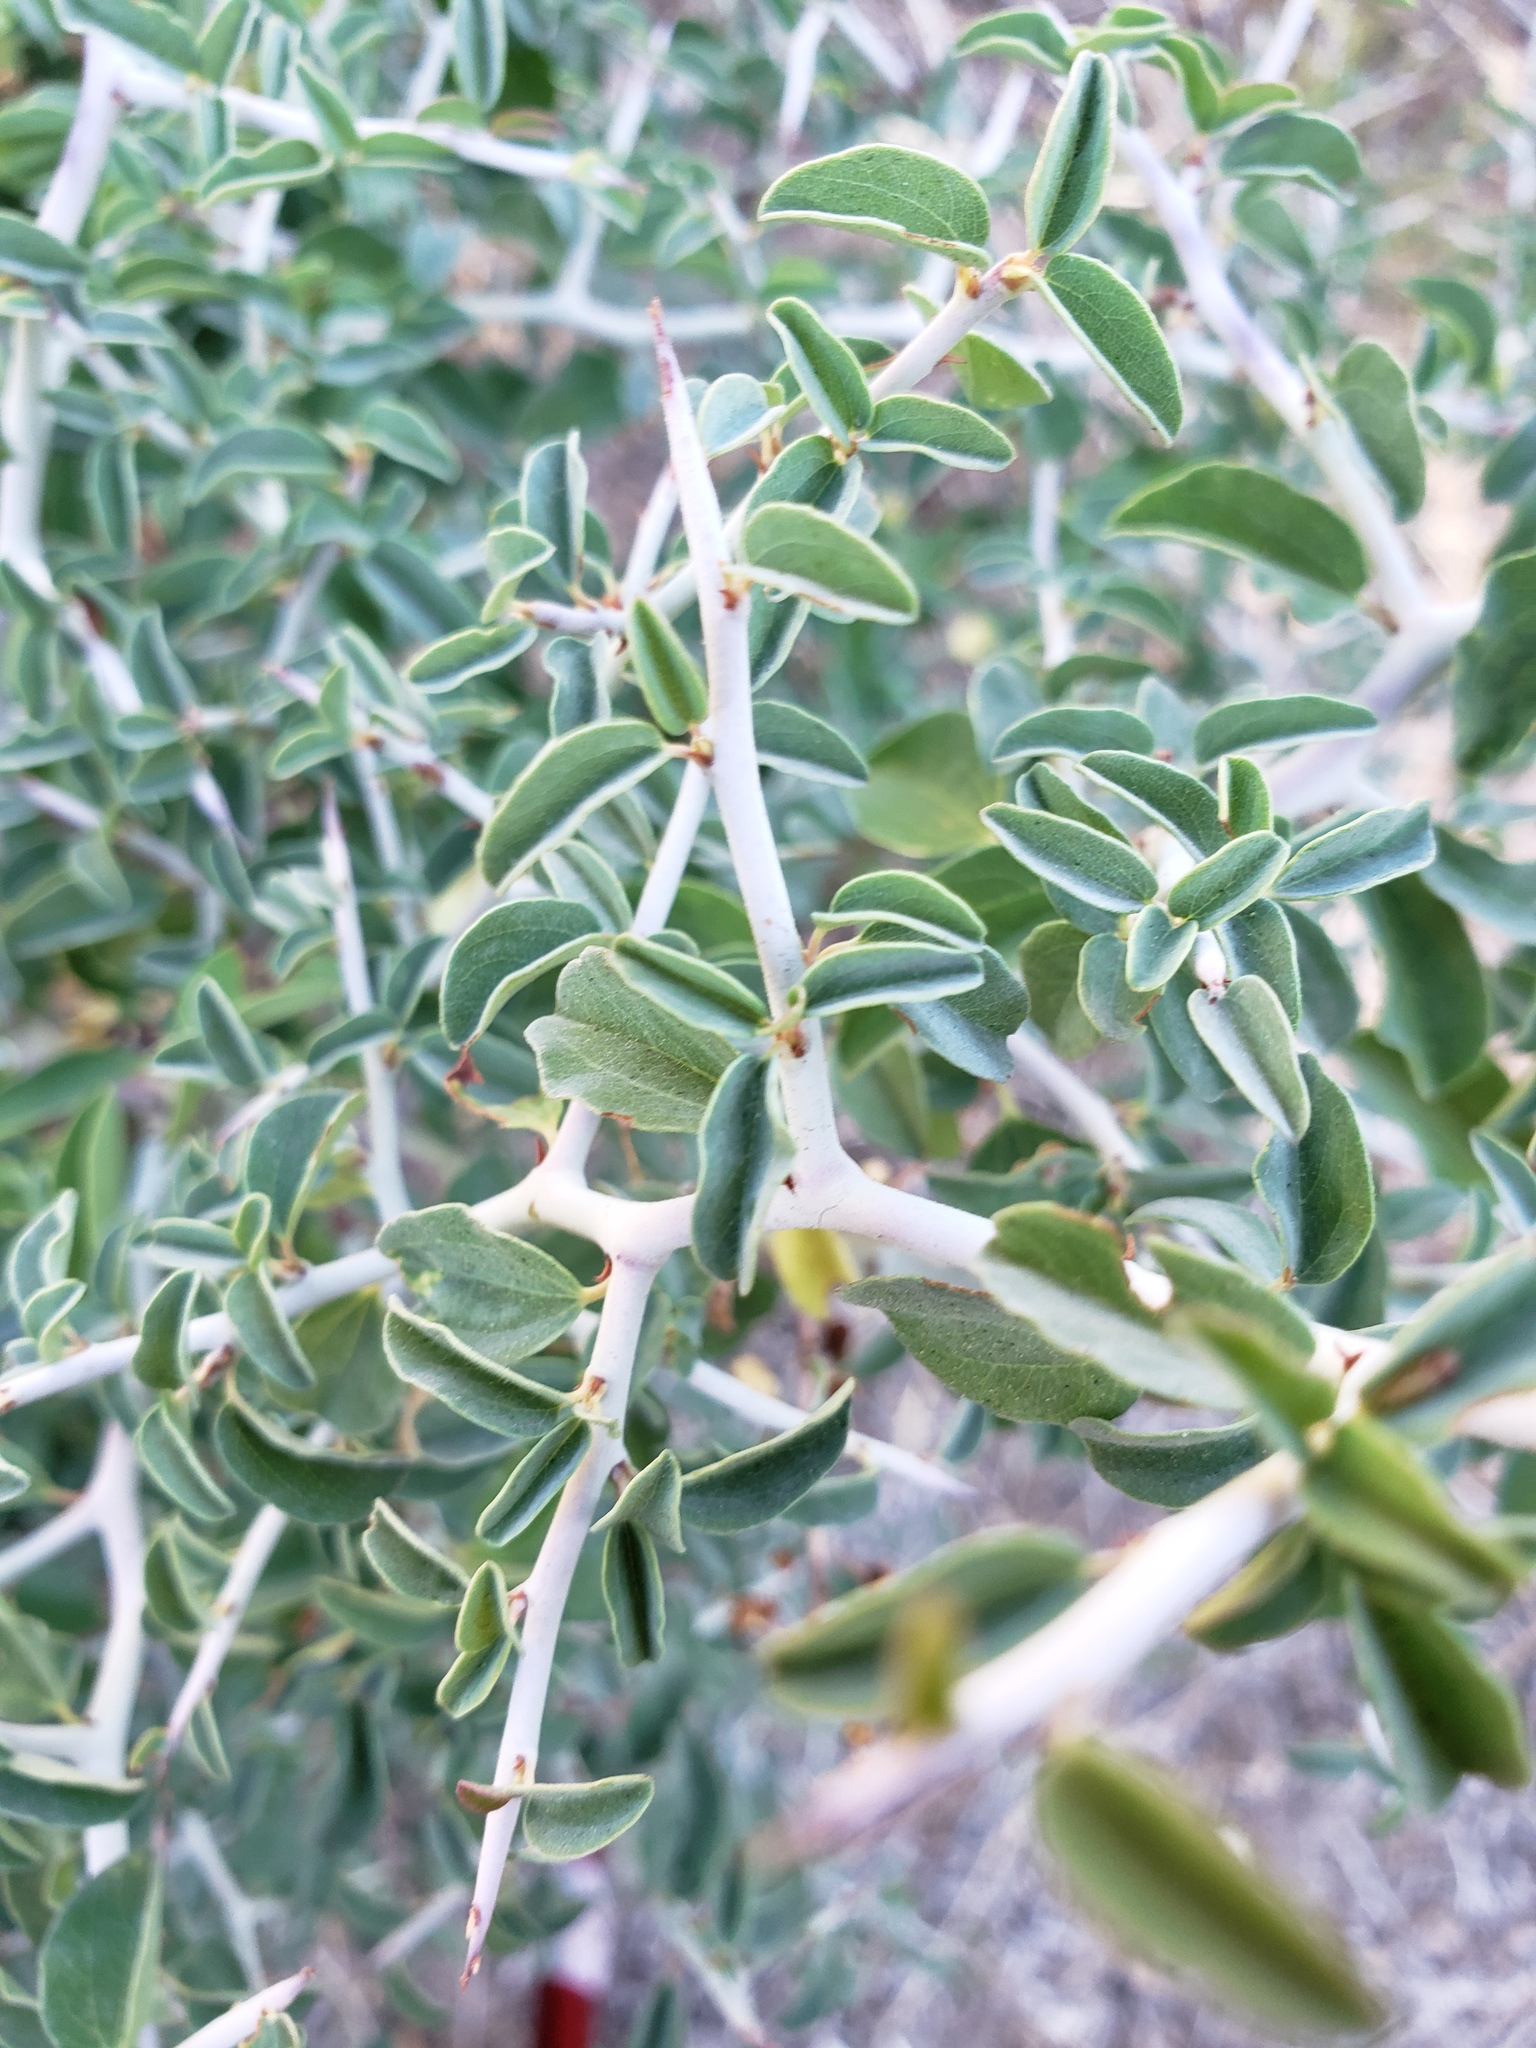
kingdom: Plantae
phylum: Tracheophyta
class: Magnoliopsida
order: Rosales
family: Rhamnaceae
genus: Ceanothus
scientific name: Ceanothus cordulatus
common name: Mountain whitethorn
